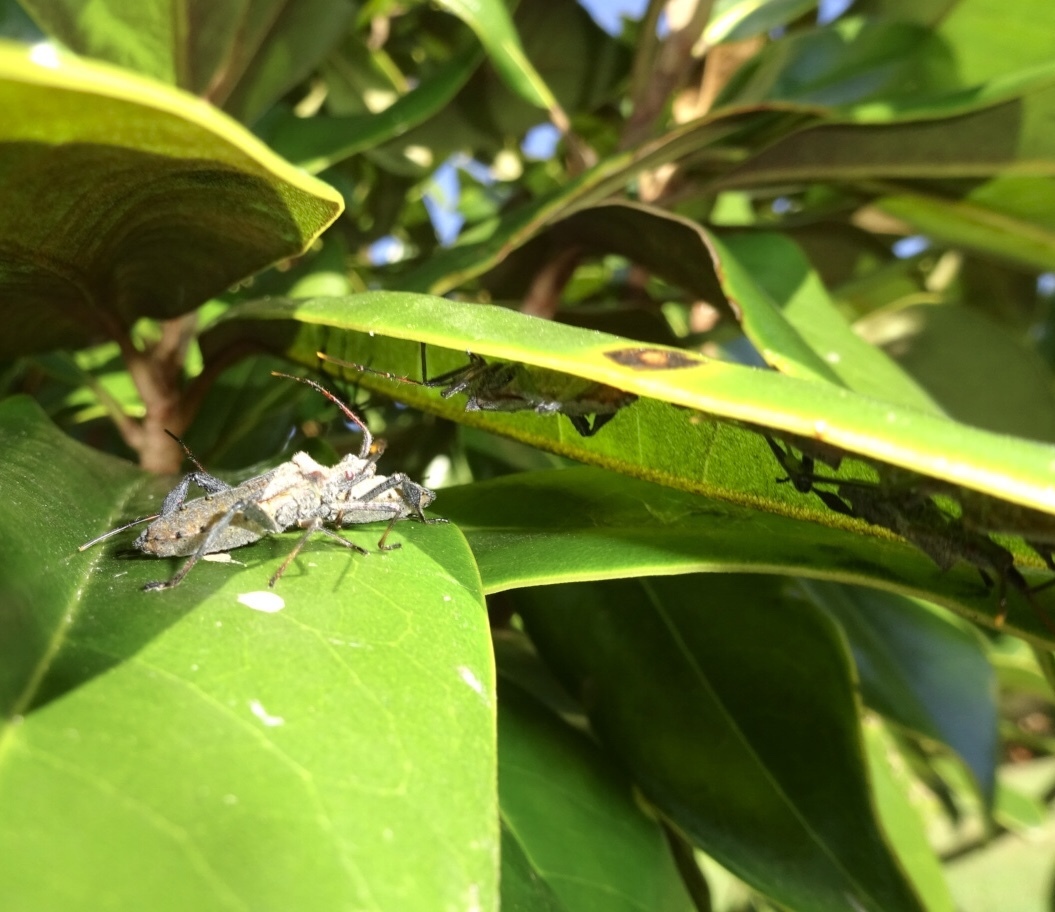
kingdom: Animalia
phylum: Arthropoda
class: Insecta
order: Hemiptera
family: Coreidae
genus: Leptoglossus
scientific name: Leptoglossus fulvicornis
